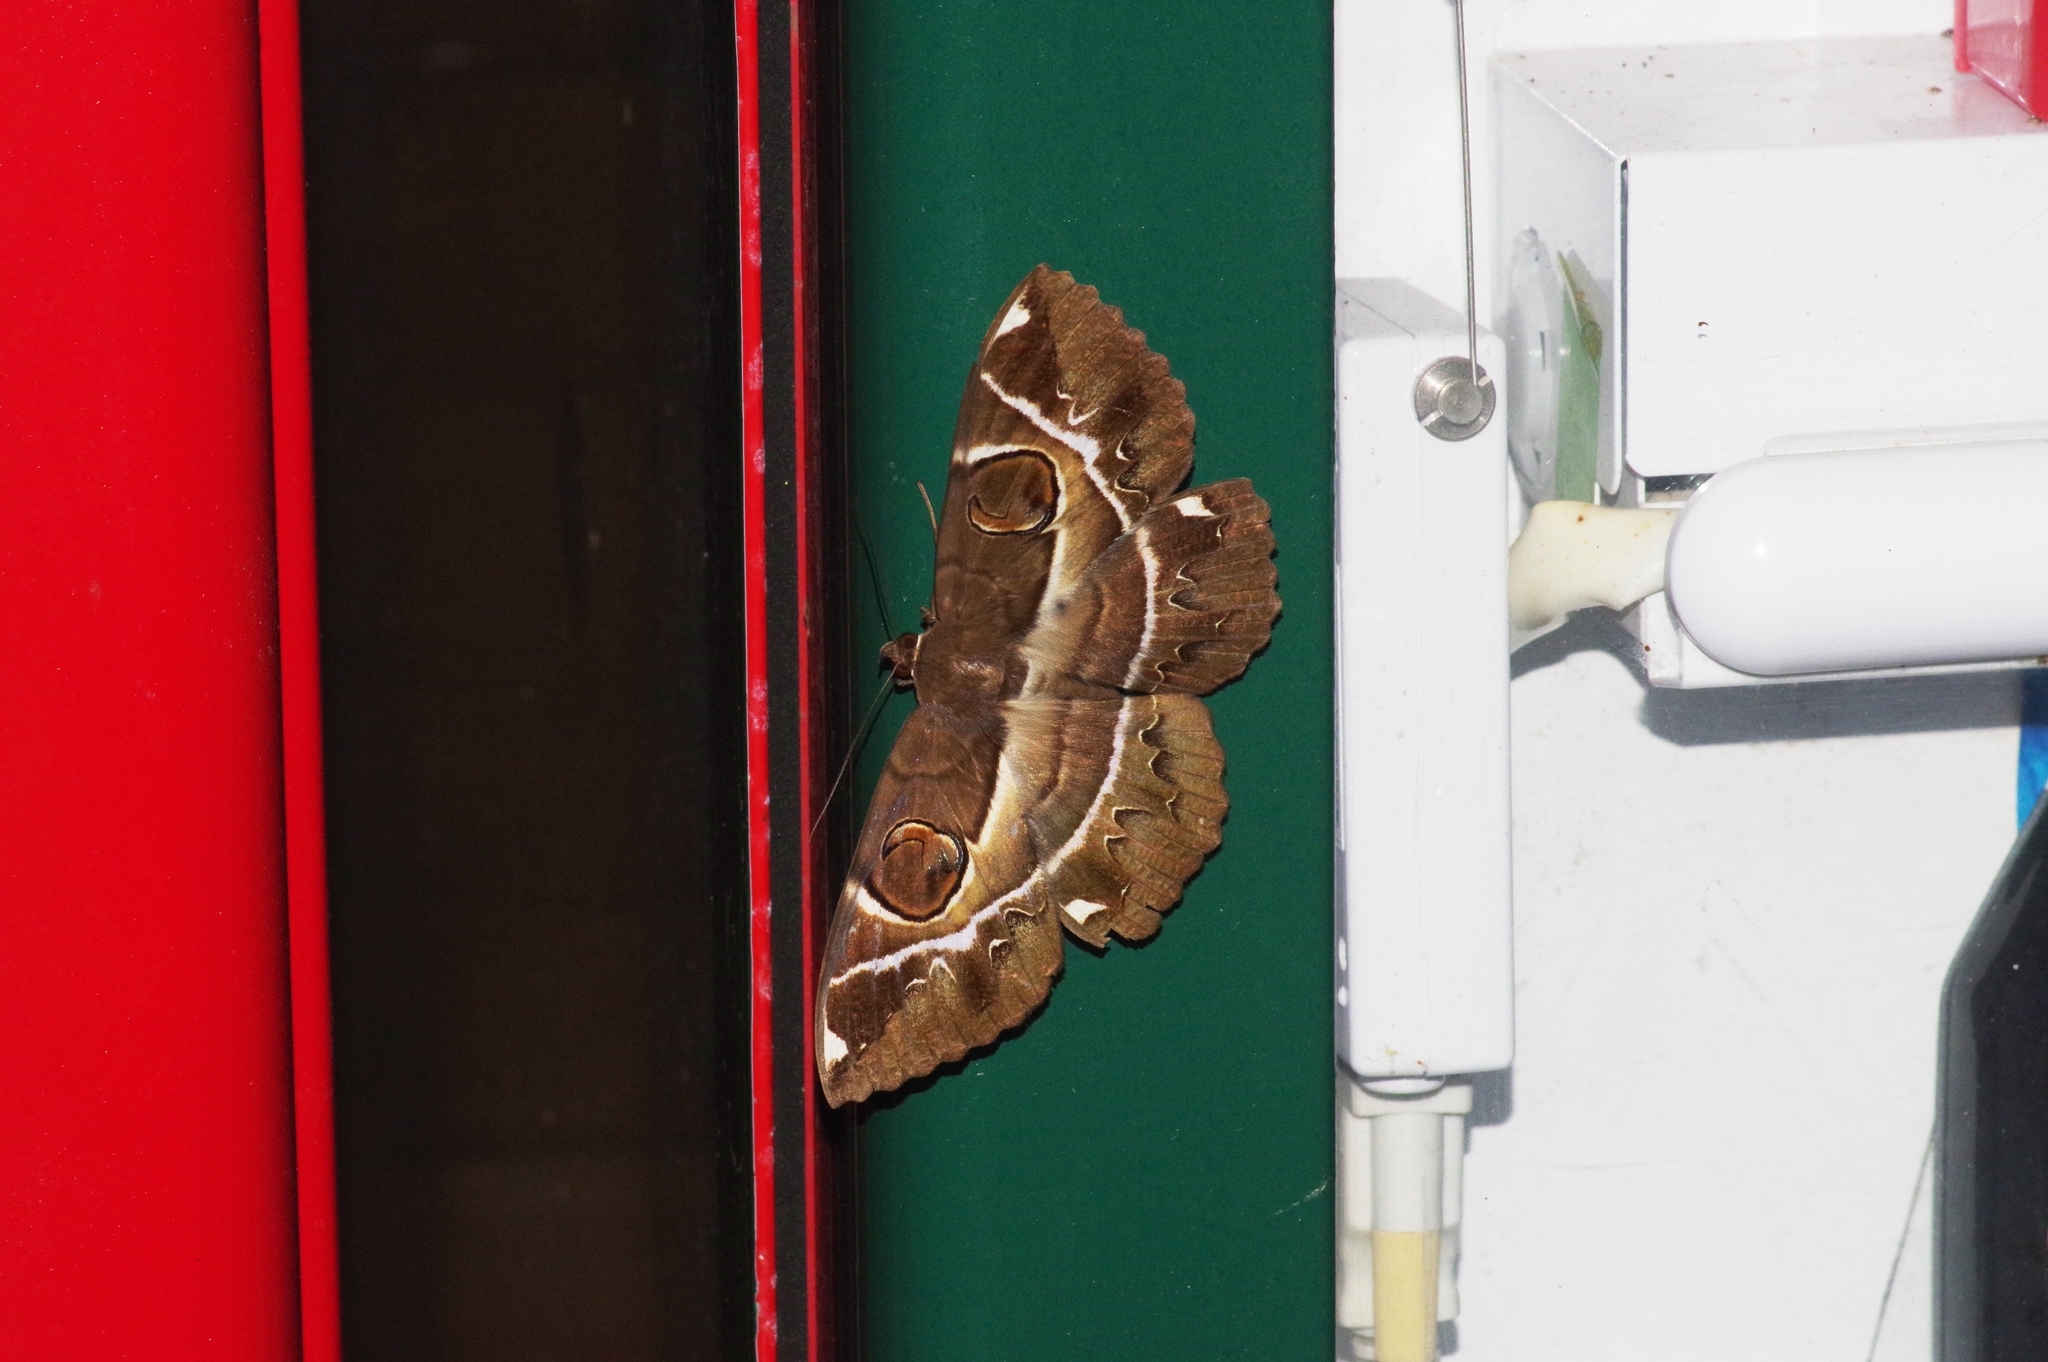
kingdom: Animalia
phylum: Arthropoda
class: Insecta
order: Lepidoptera
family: Erebidae
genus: Erebus
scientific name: Erebus ephesperis
